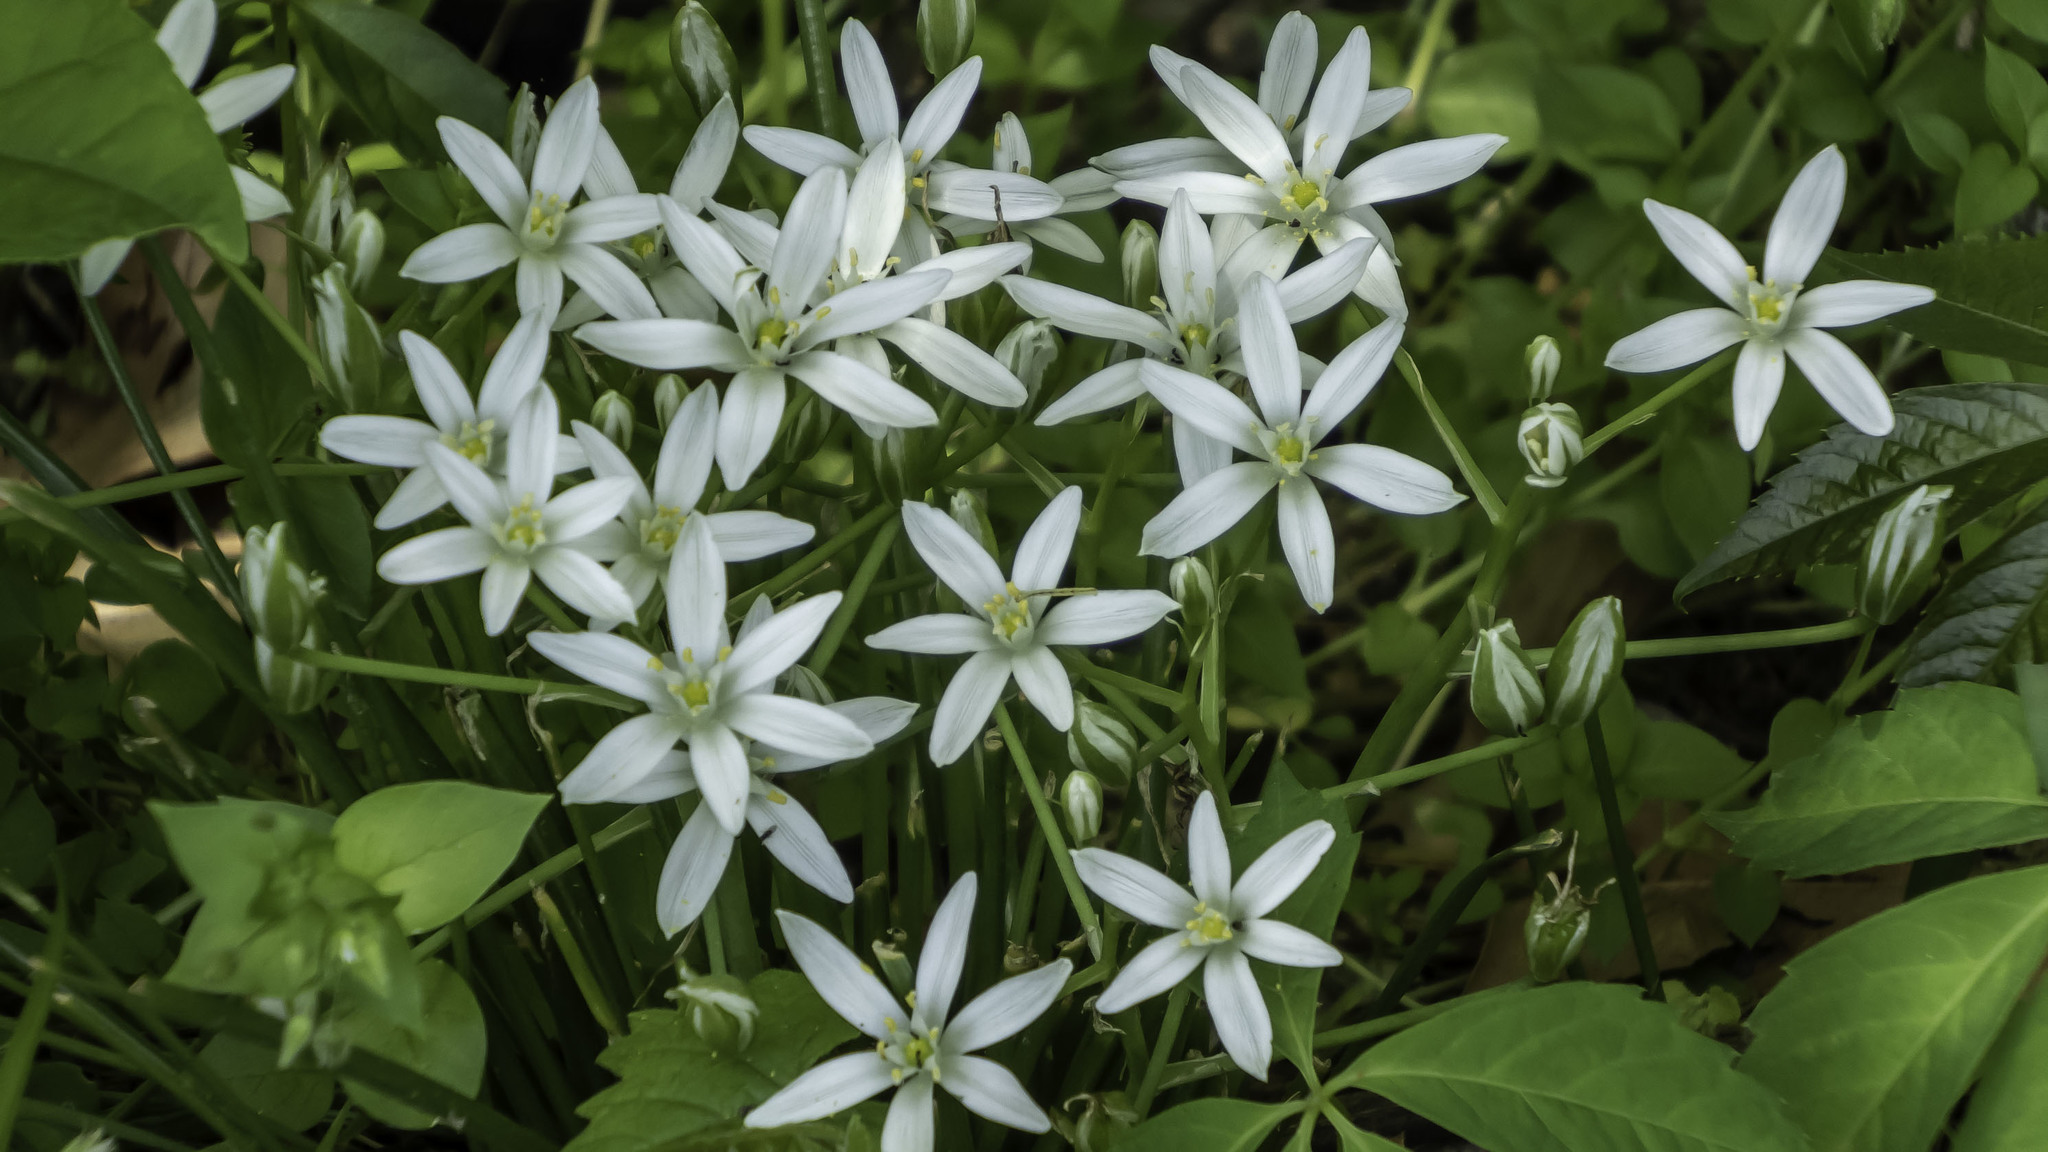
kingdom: Plantae
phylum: Tracheophyta
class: Liliopsida
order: Asparagales
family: Asparagaceae
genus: Ornithogalum
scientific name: Ornithogalum umbellatum
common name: Garden star-of-bethlehem
